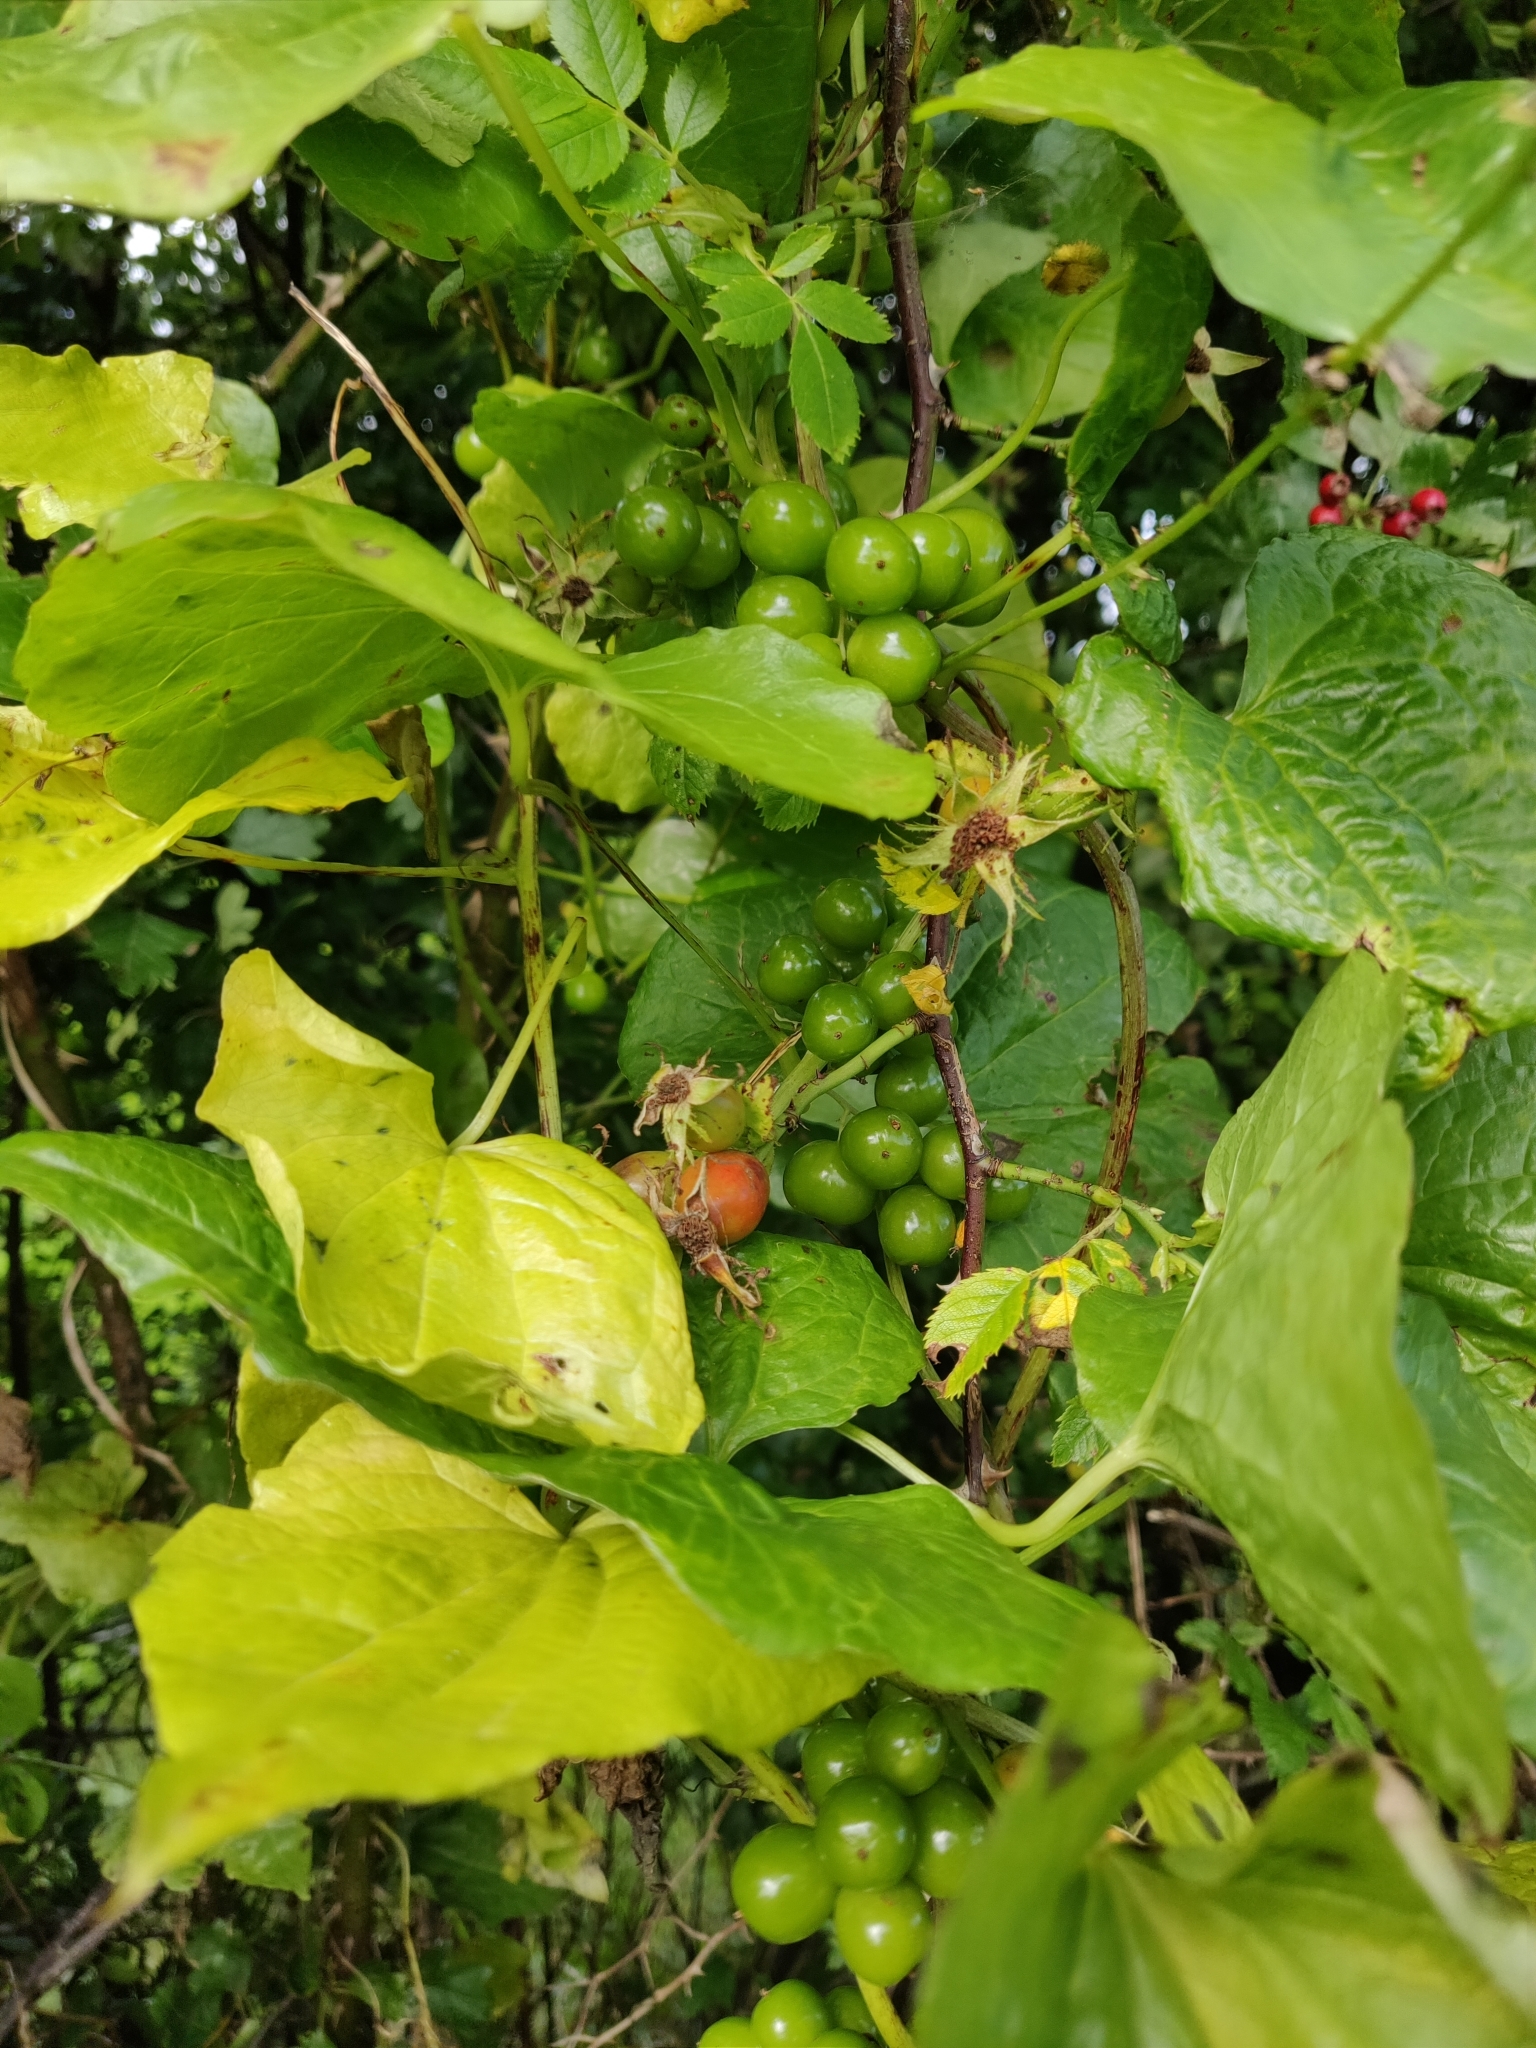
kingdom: Plantae
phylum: Tracheophyta
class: Liliopsida
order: Dioscoreales
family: Dioscoreaceae
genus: Dioscorea
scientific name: Dioscorea communis
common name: Black-bindweed
